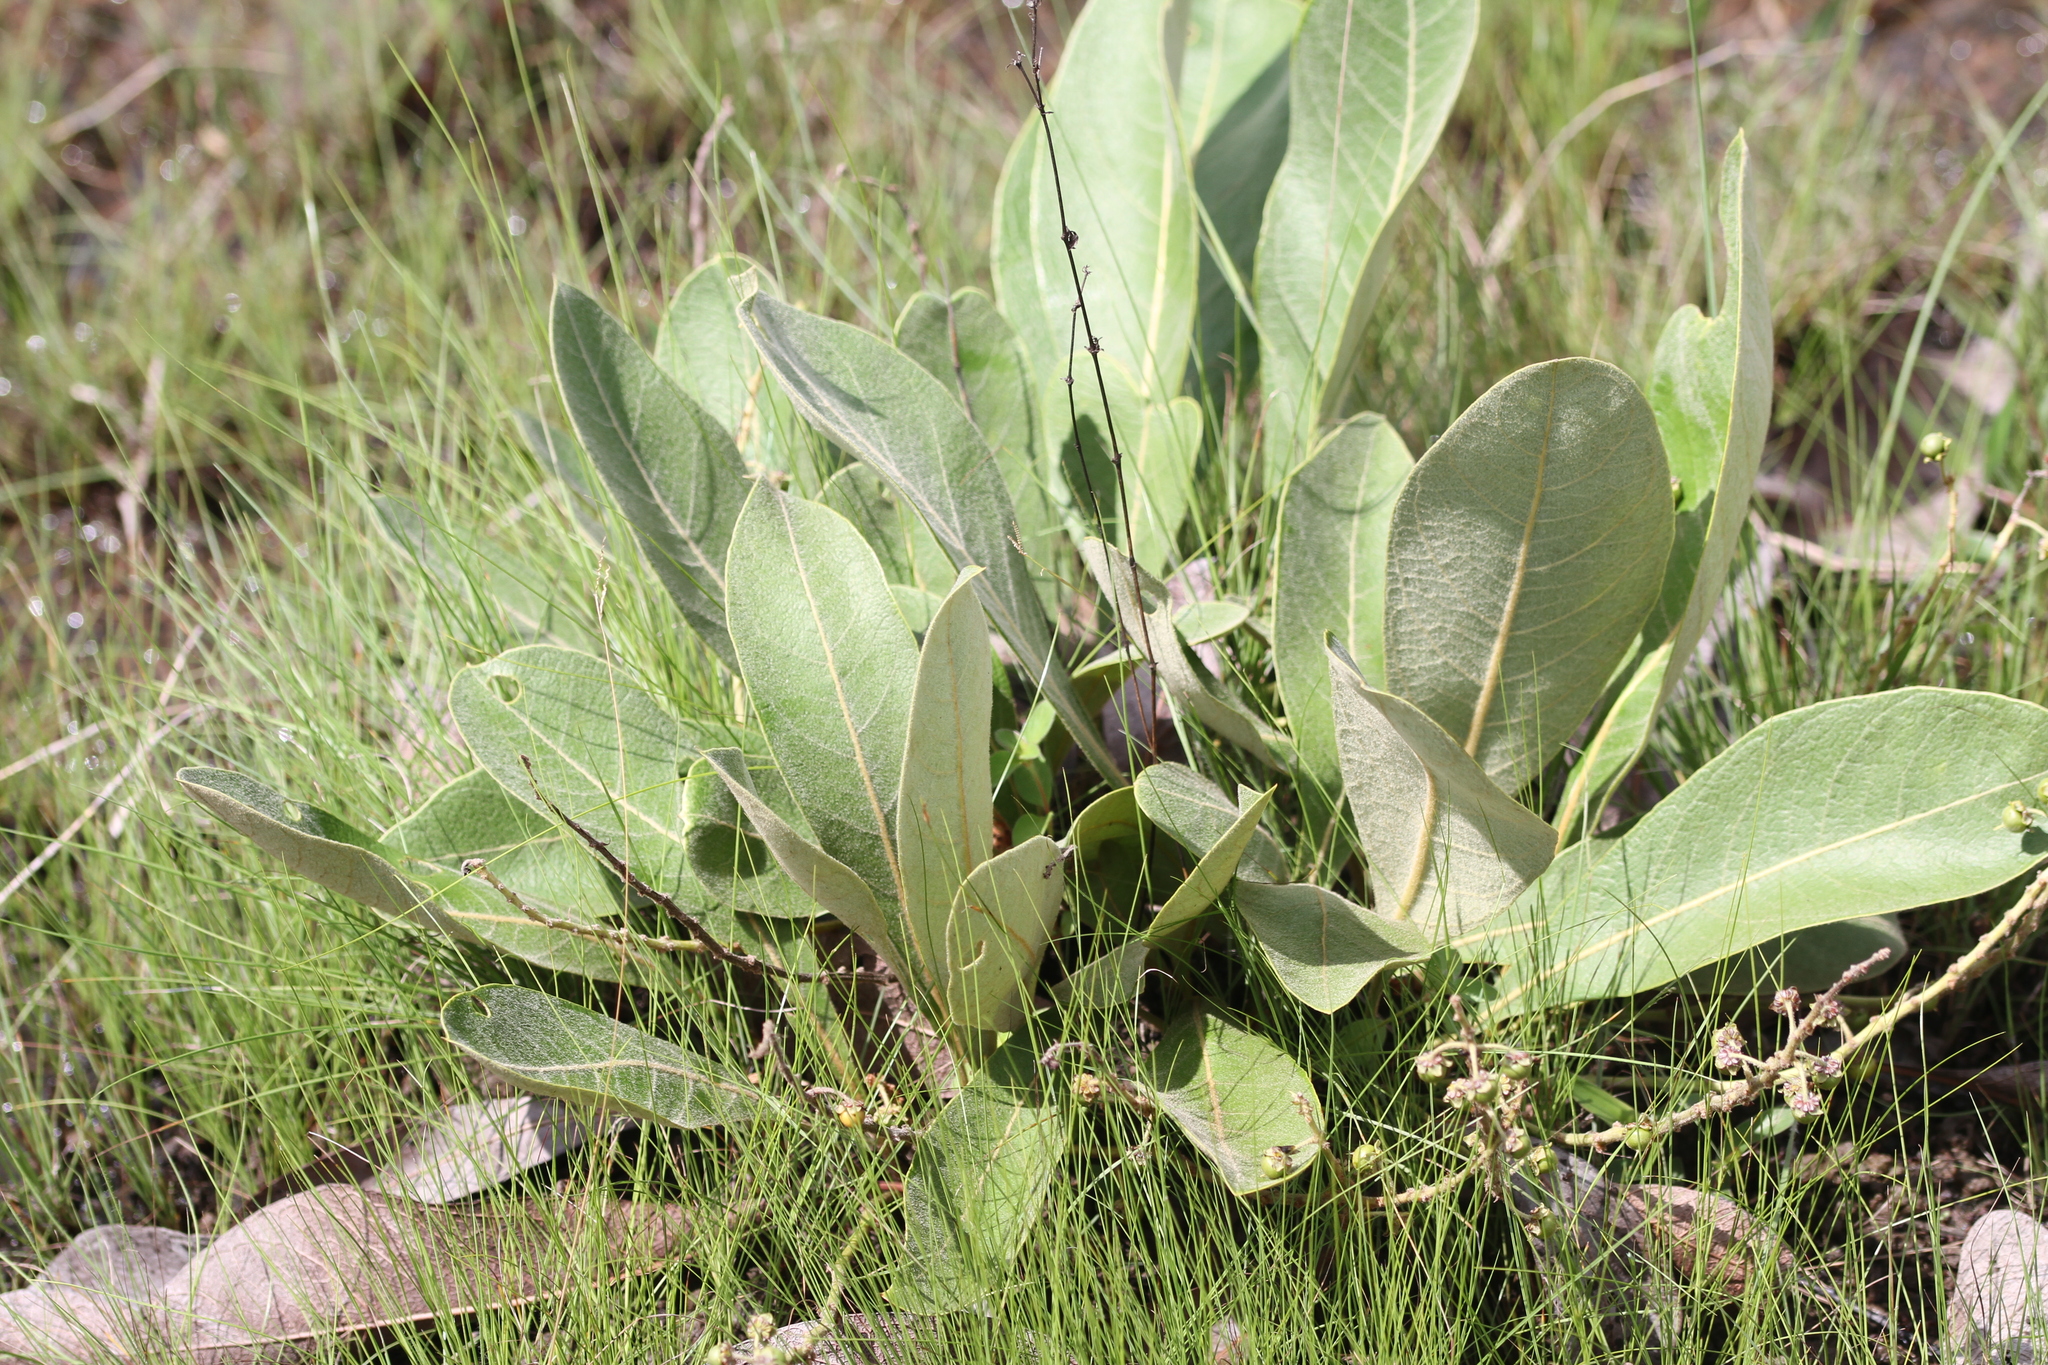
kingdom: Plantae
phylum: Tracheophyta
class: Magnoliopsida
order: Malpighiales
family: Malpighiaceae
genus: Byrsonima
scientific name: Byrsonima verbascifolia
